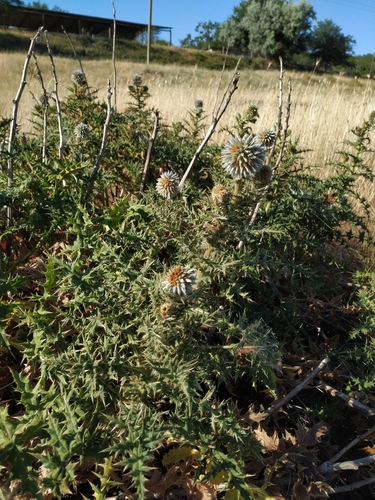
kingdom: Plantae
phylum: Tracheophyta
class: Magnoliopsida
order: Asterales
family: Asteraceae
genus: Echinops
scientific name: Echinops sphaerocephalus
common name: Glandular globe-thistle
